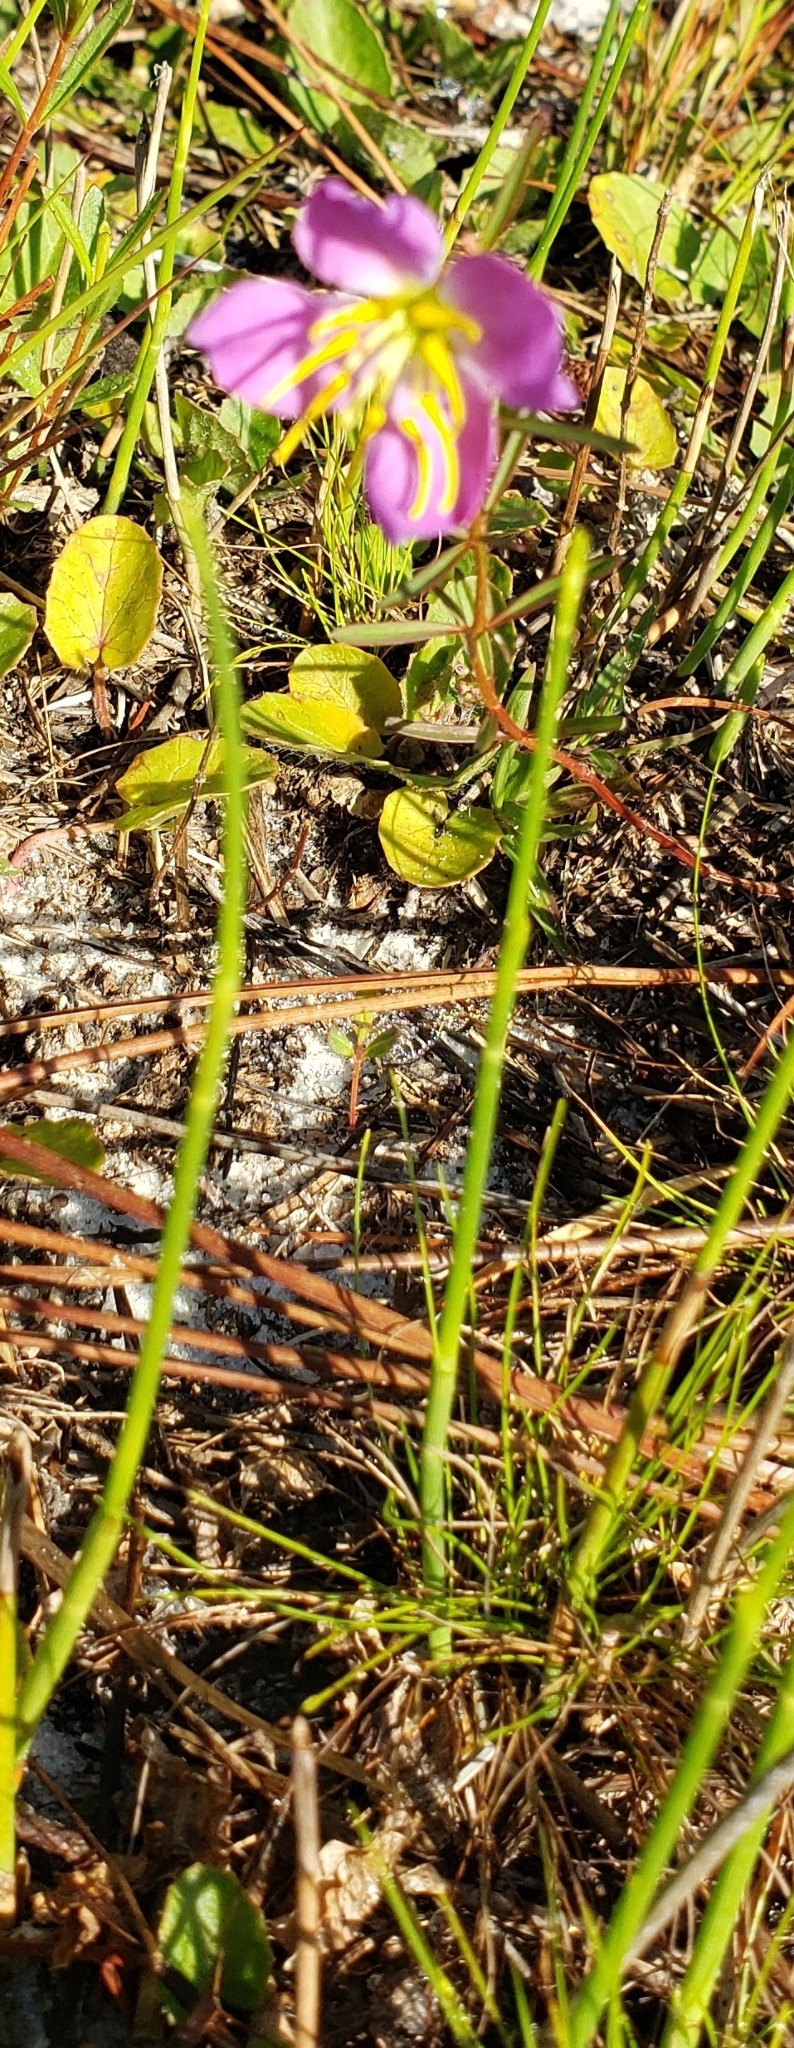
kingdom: Plantae
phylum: Tracheophyta
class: Magnoliopsida
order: Myrtales
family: Melastomataceae
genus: Rhexia
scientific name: Rhexia mariana
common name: Dull meadow-pitcher
